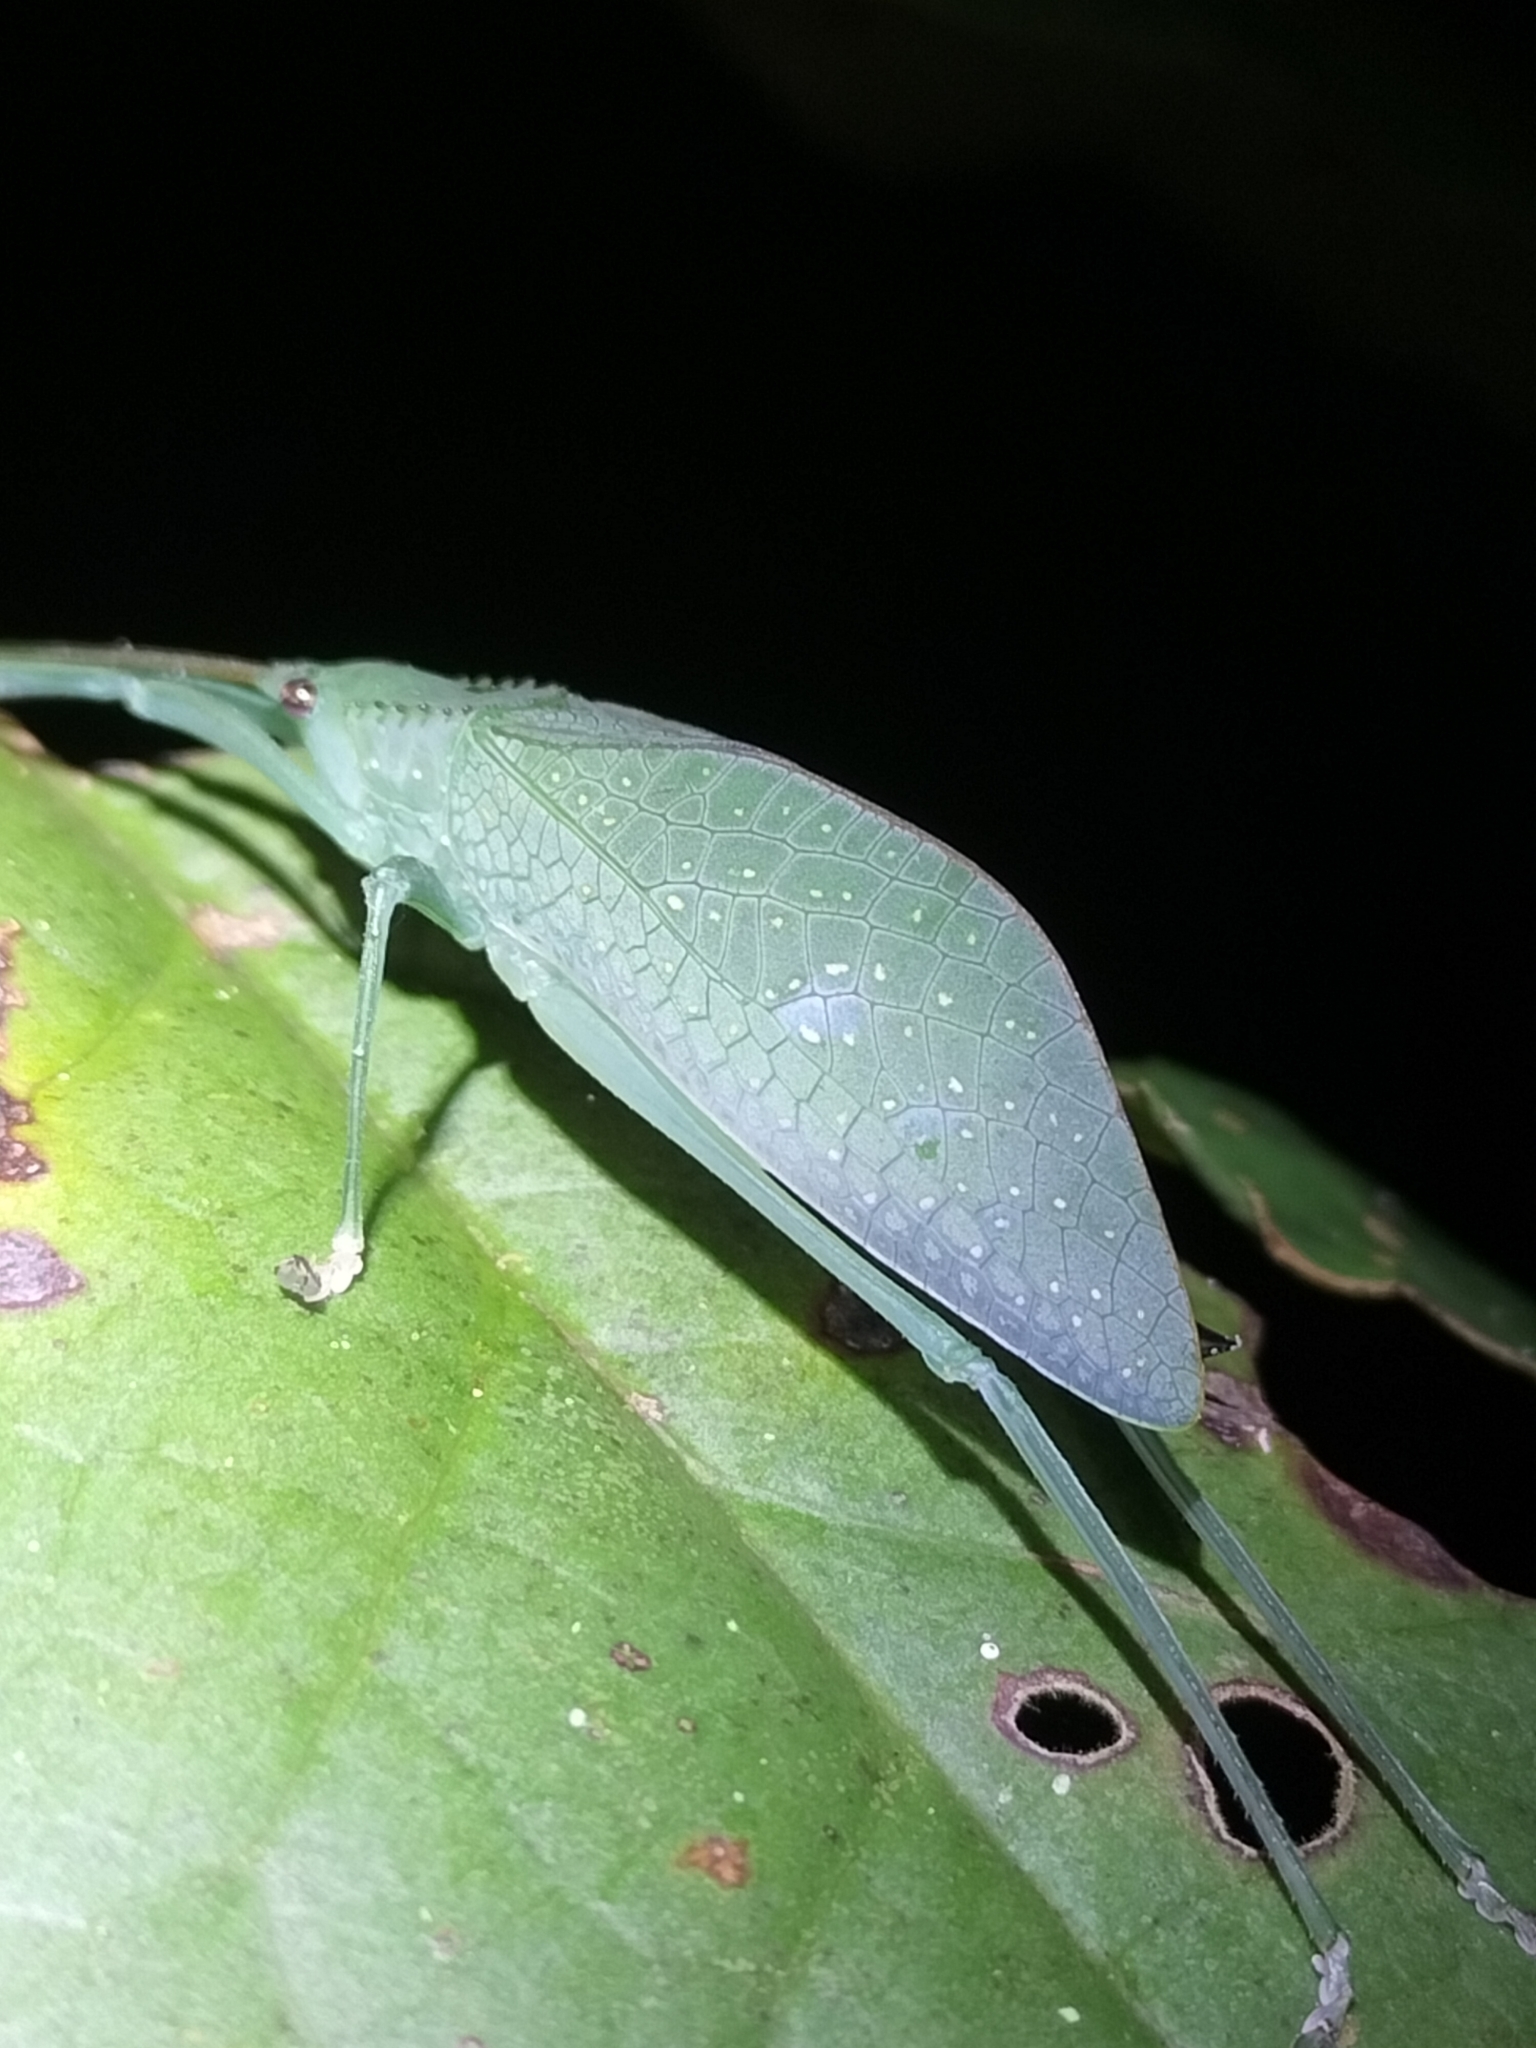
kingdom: Animalia
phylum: Arthropoda
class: Insecta
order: Orthoptera
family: Tettigoniidae
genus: Chloracantha
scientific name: Chloracantha angularis
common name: Angular-winged snub-nosed katydid
